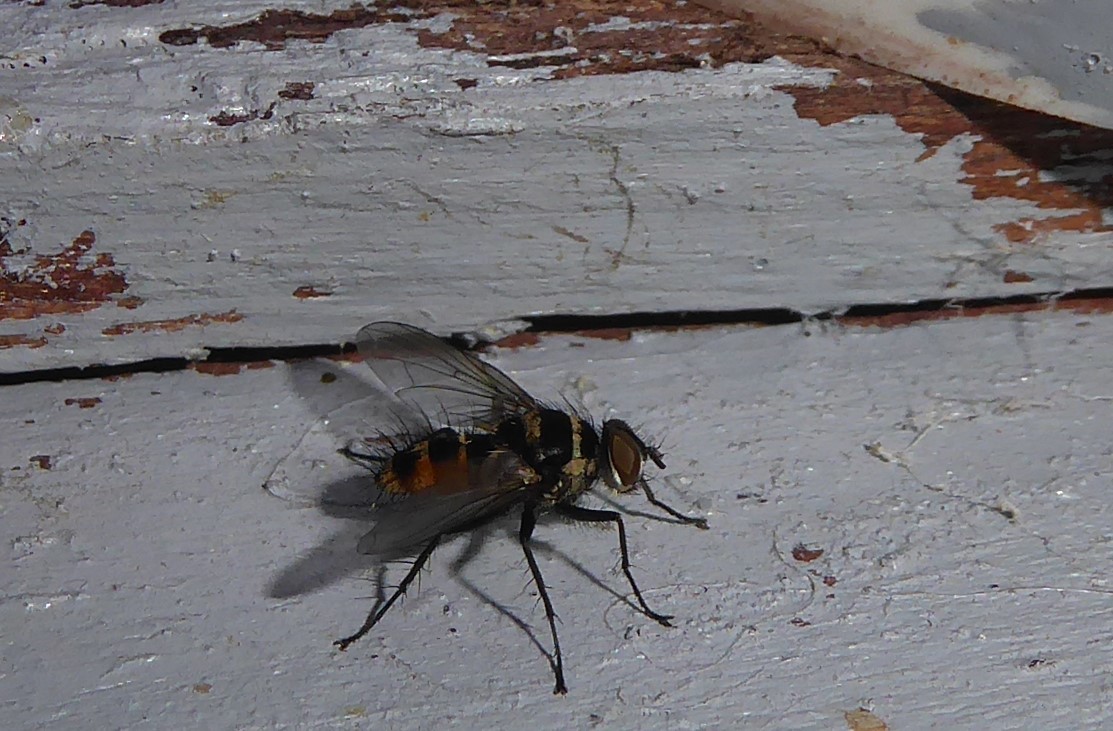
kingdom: Animalia
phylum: Arthropoda
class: Insecta
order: Diptera
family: Tachinidae
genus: Trigonospila
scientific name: Trigonospila brevifacies
